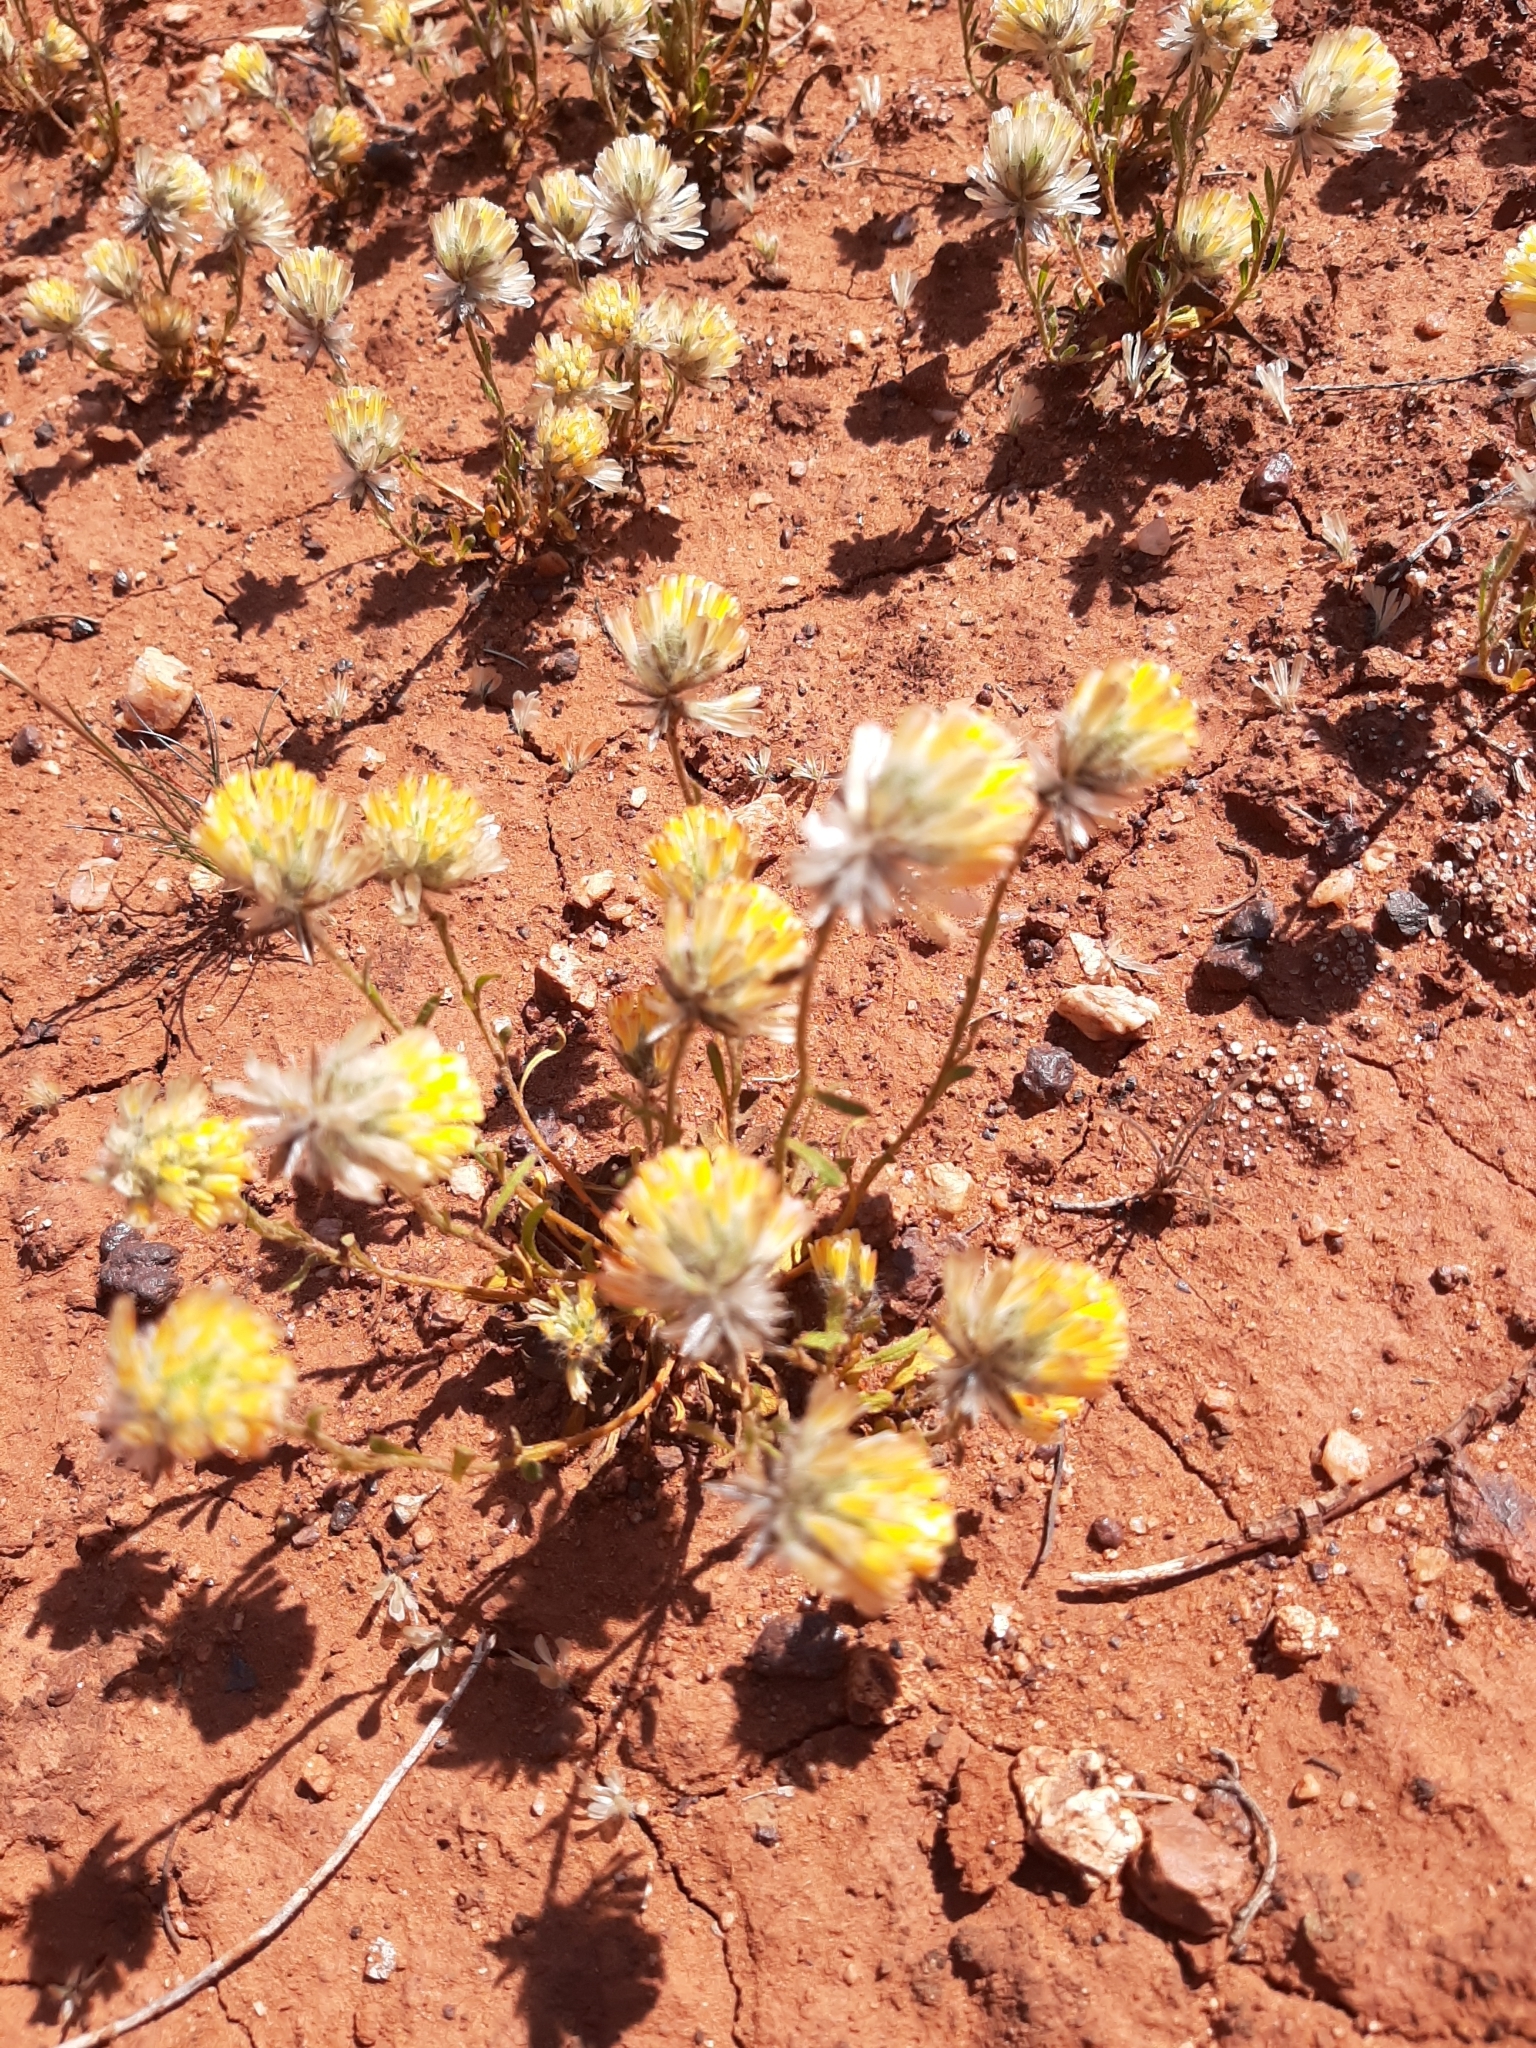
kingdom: Plantae
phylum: Tracheophyta
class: Magnoliopsida
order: Caryophyllales
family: Amaranthaceae
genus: Ptilotus
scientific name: Ptilotus carlsonii
